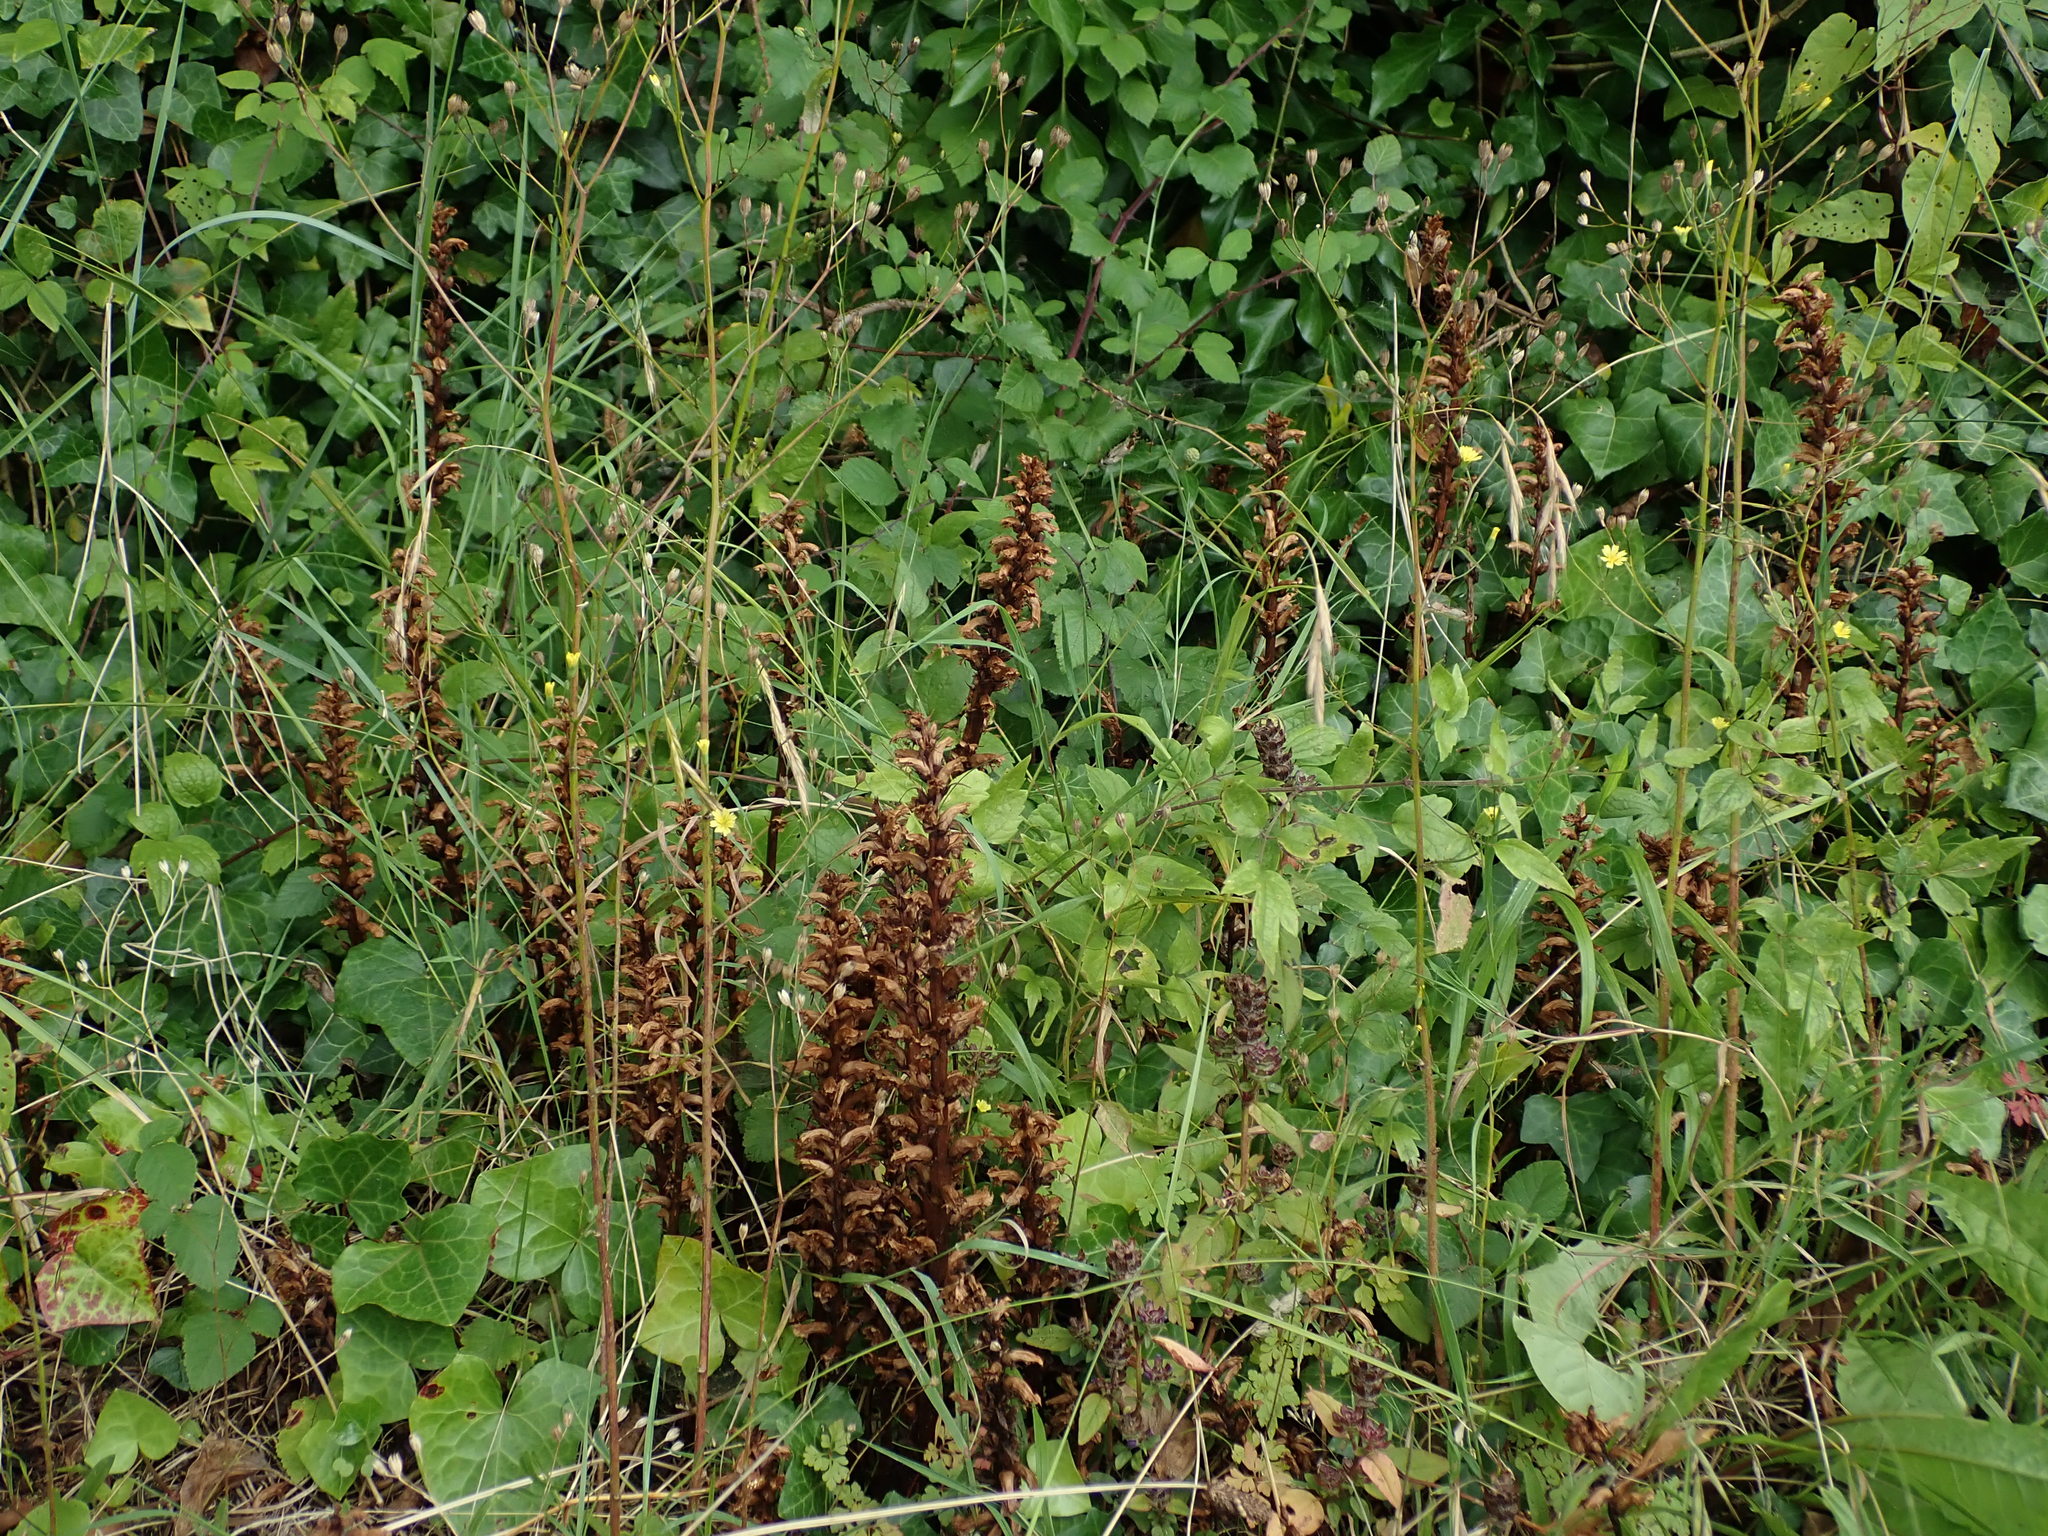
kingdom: Plantae
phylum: Tracheophyta
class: Magnoliopsida
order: Lamiales
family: Orobanchaceae
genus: Orobanche
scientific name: Orobanche hederae
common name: Ivy broomrape
